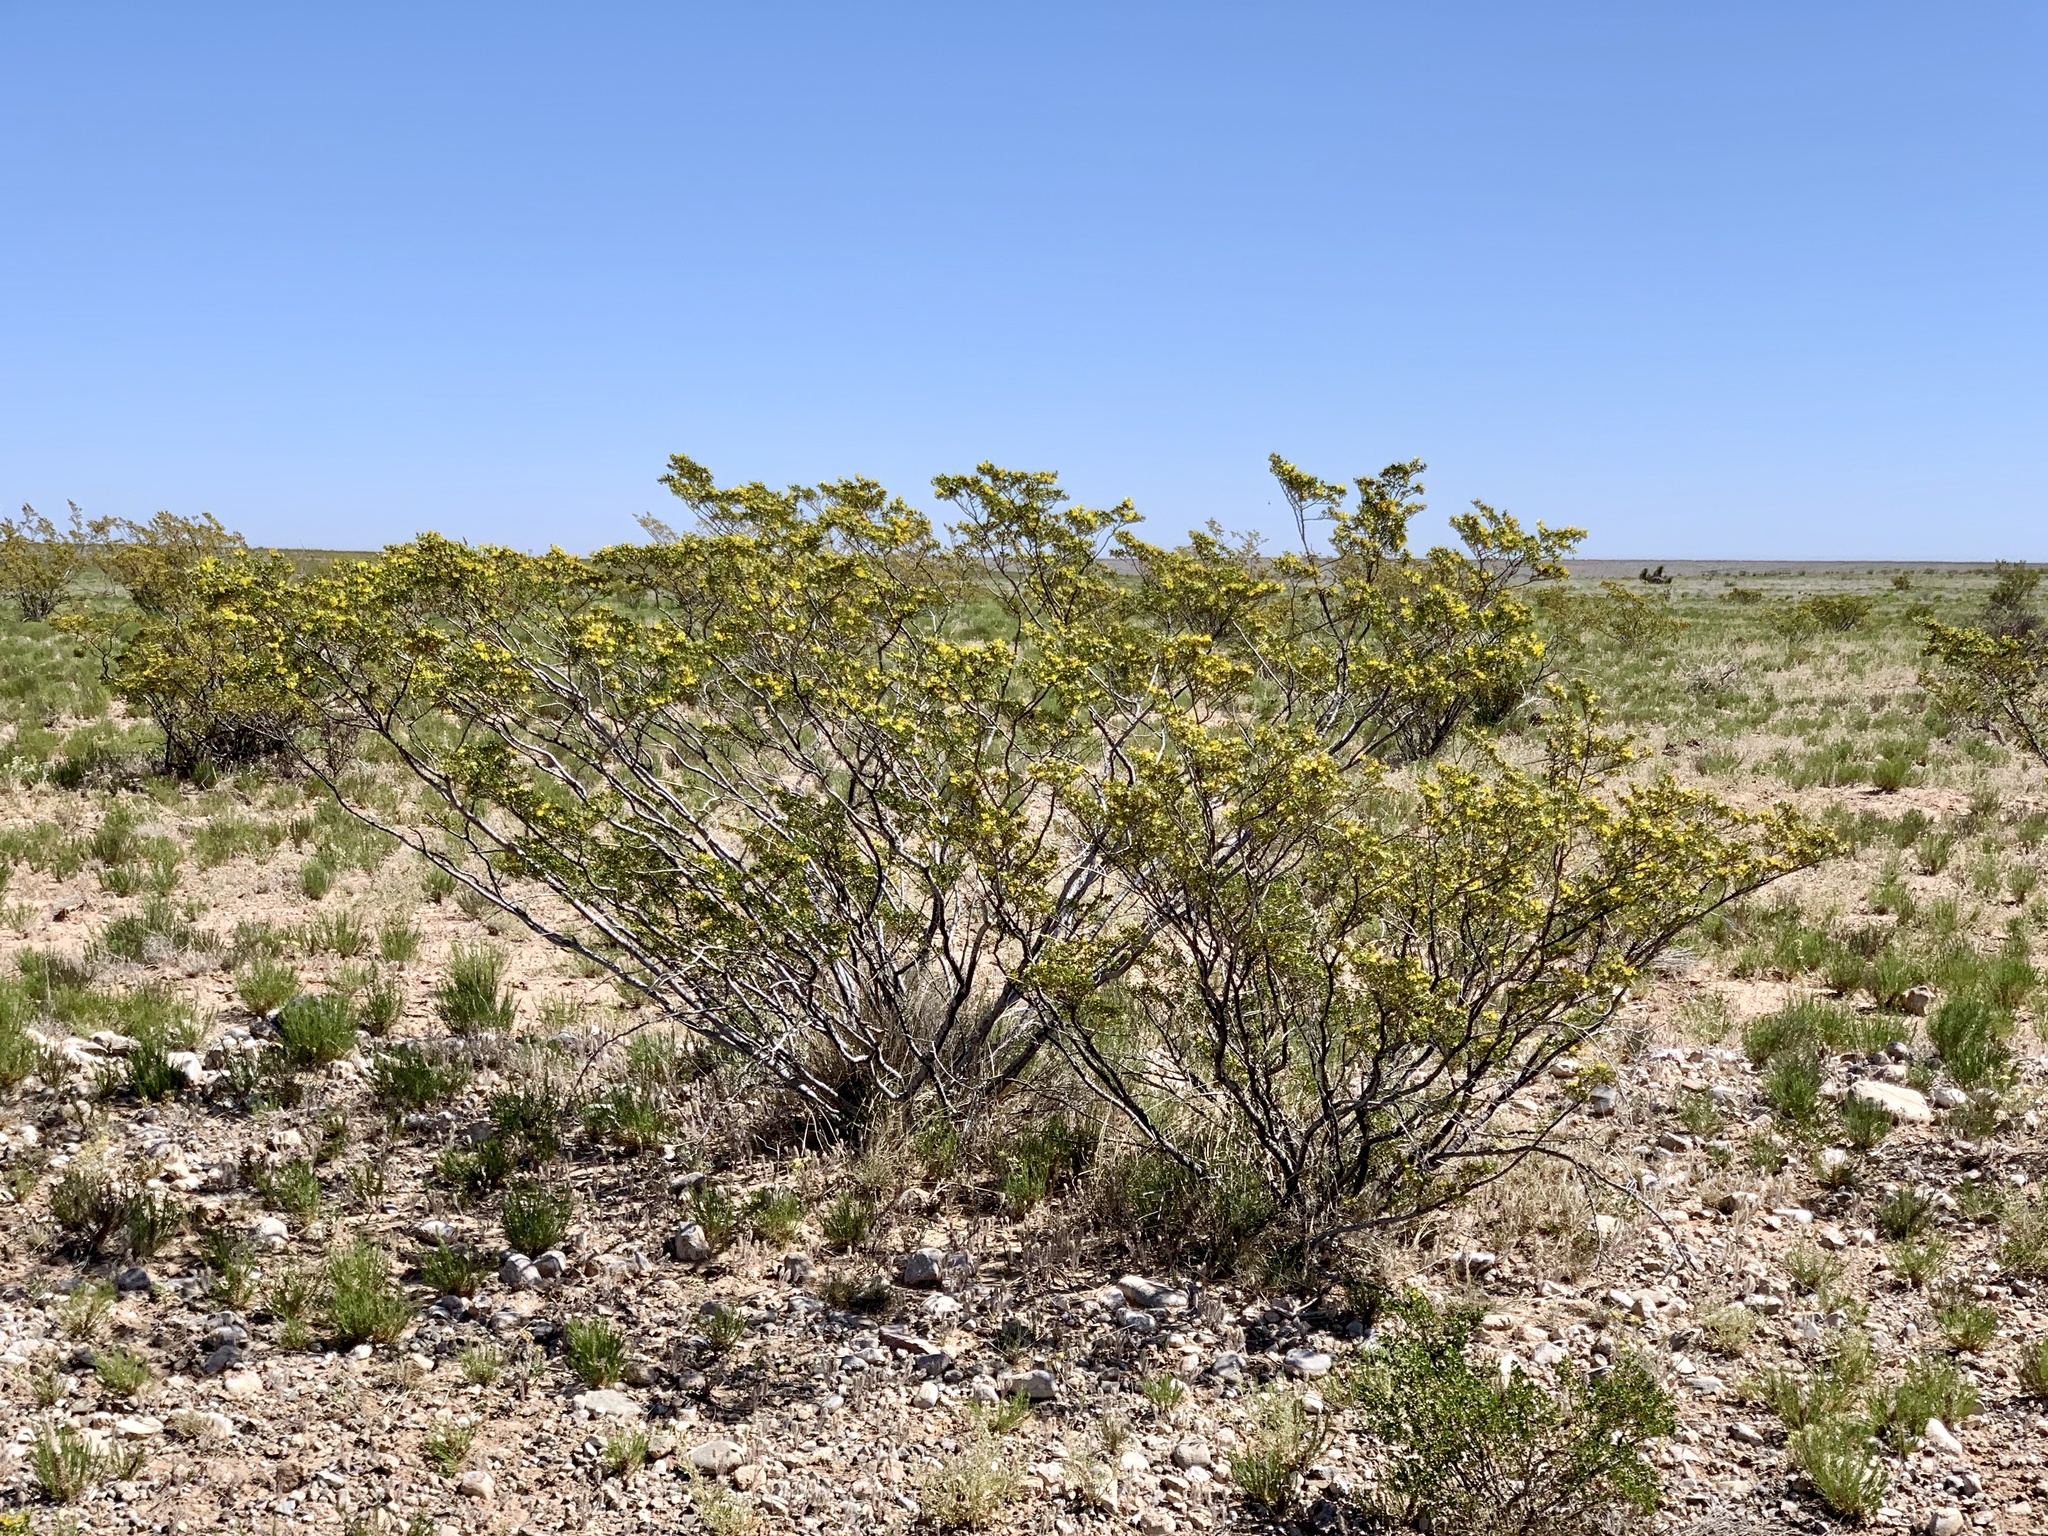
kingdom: Plantae
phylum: Tracheophyta
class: Magnoliopsida
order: Zygophyllales
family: Zygophyllaceae
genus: Larrea
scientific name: Larrea tridentata
